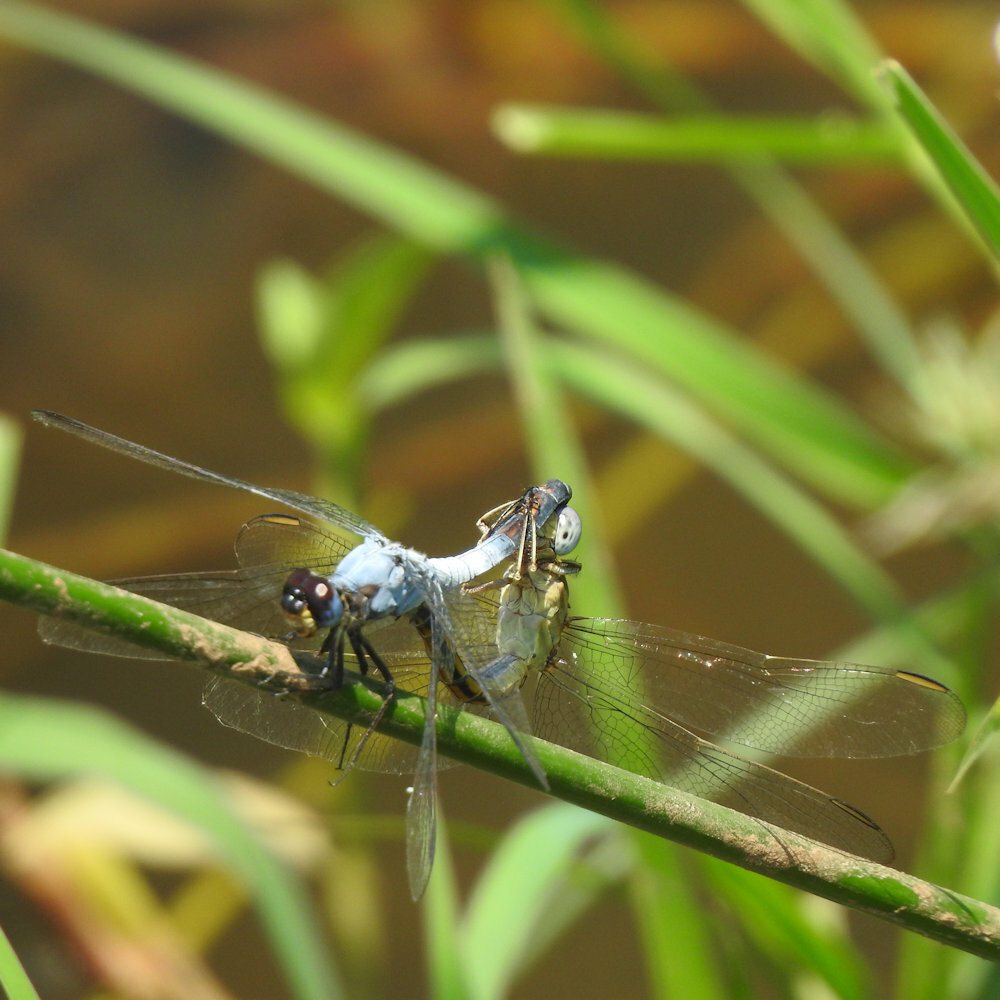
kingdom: Animalia
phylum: Arthropoda
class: Insecta
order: Odonata
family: Libellulidae
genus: Nesciothemis
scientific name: Nesciothemis farinosa
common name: Eastern blacktail
